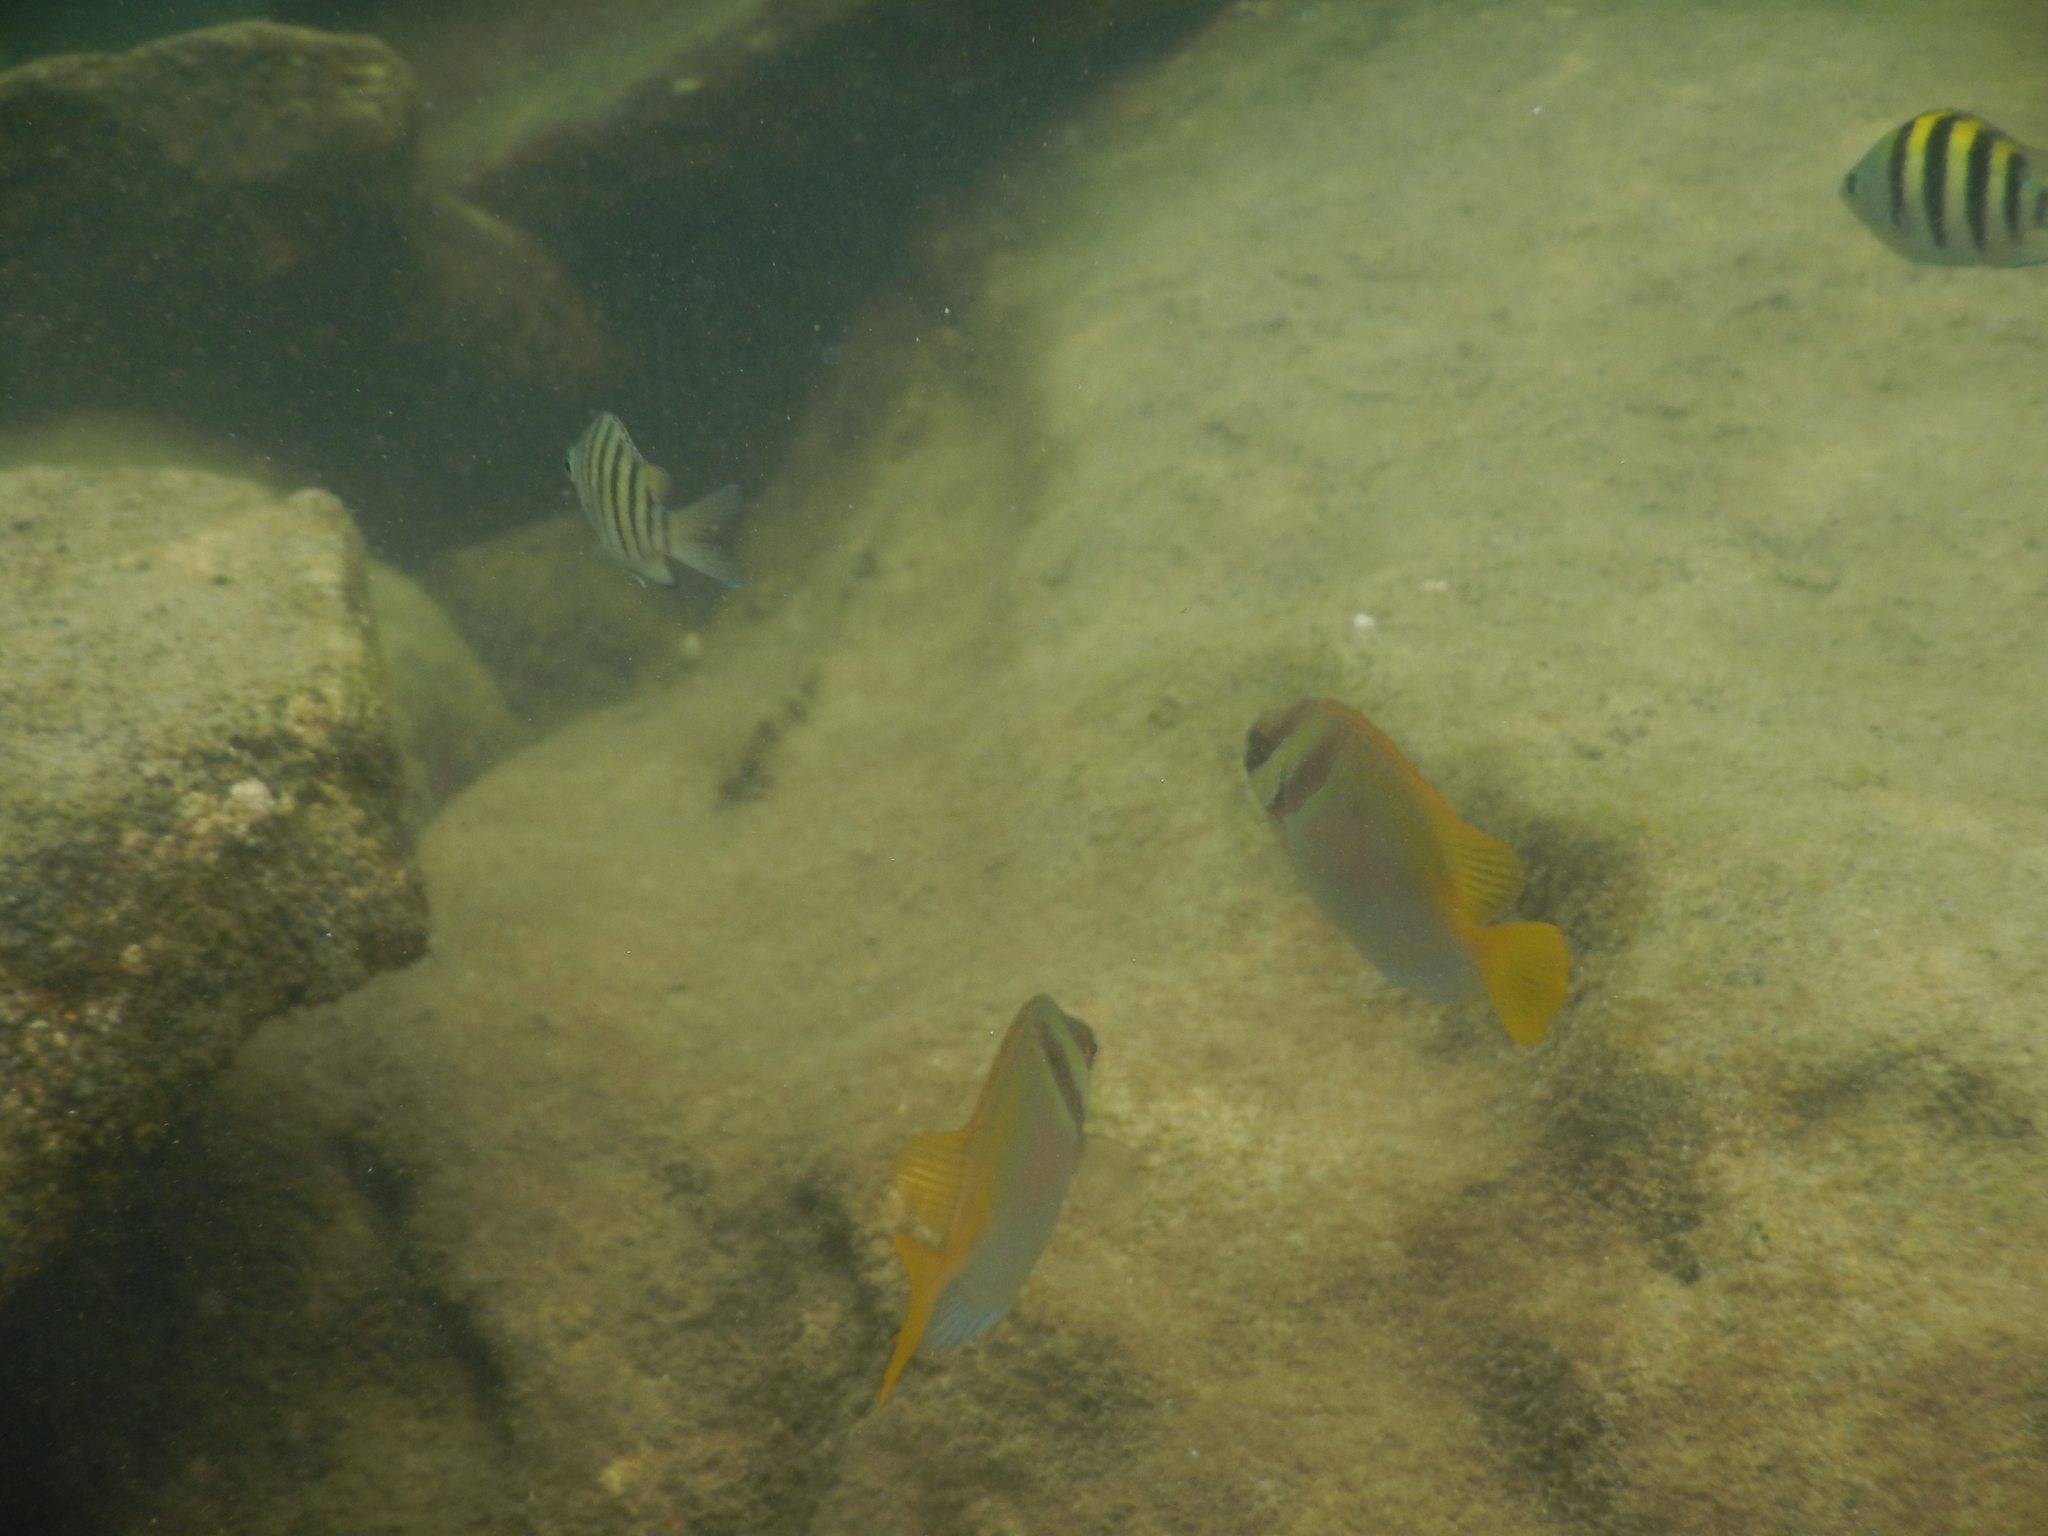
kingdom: Animalia
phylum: Chordata
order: Perciformes
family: Siganidae
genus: Siganus
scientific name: Siganus virgatus
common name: Barhead spinefoot
